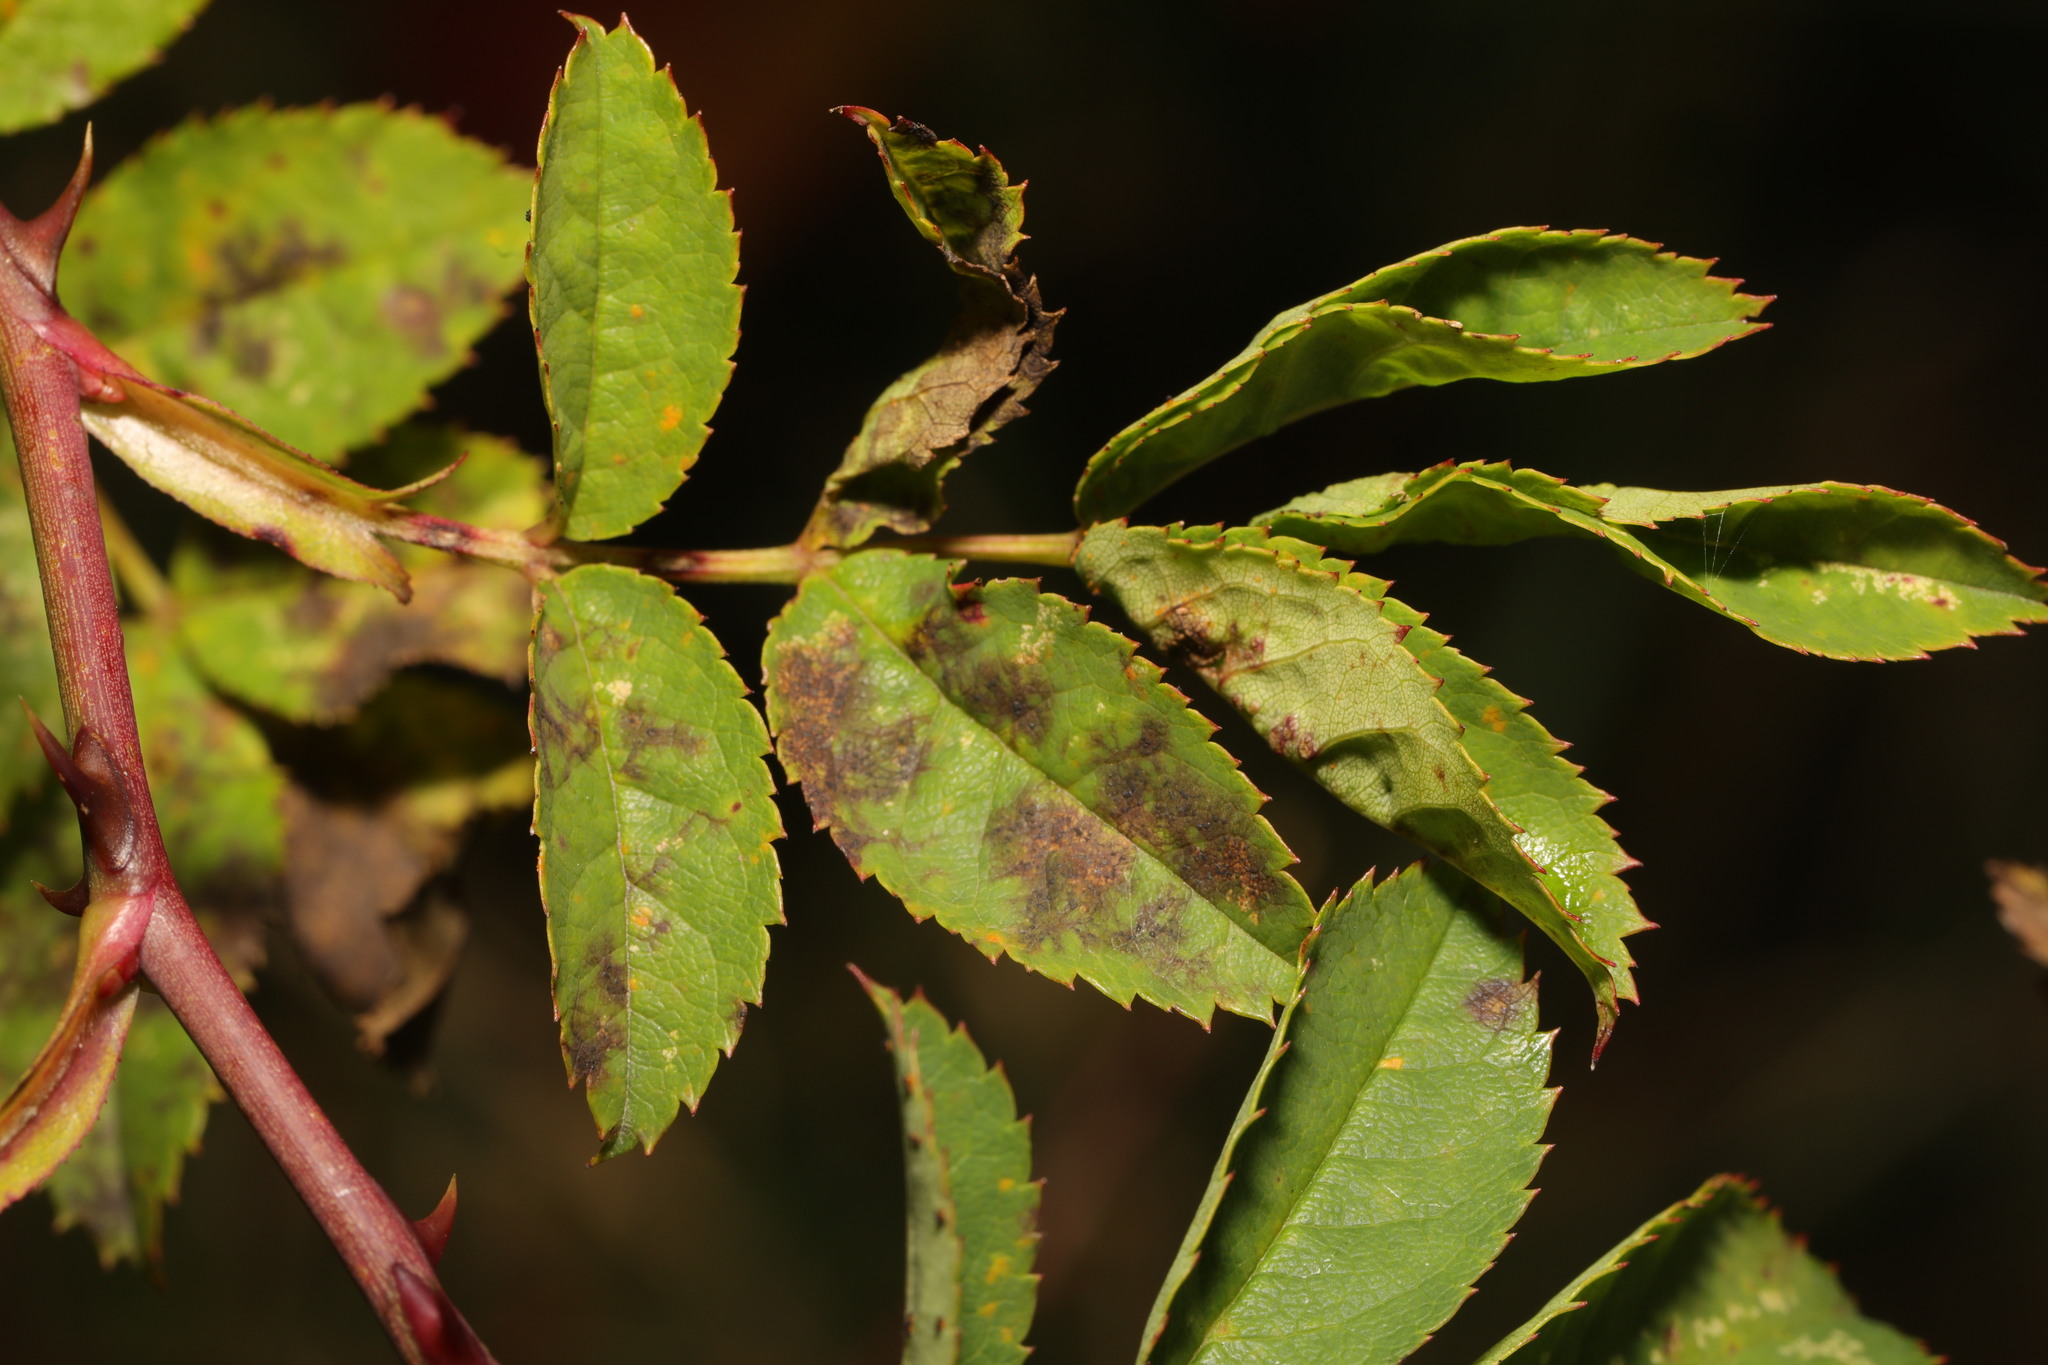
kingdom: Fungi
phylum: Ascomycota
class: Leotiomycetes
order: Helotiales
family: Drepanopezizaceae
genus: Diplocarpon
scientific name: Diplocarpon rosae
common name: Rose black-spot
